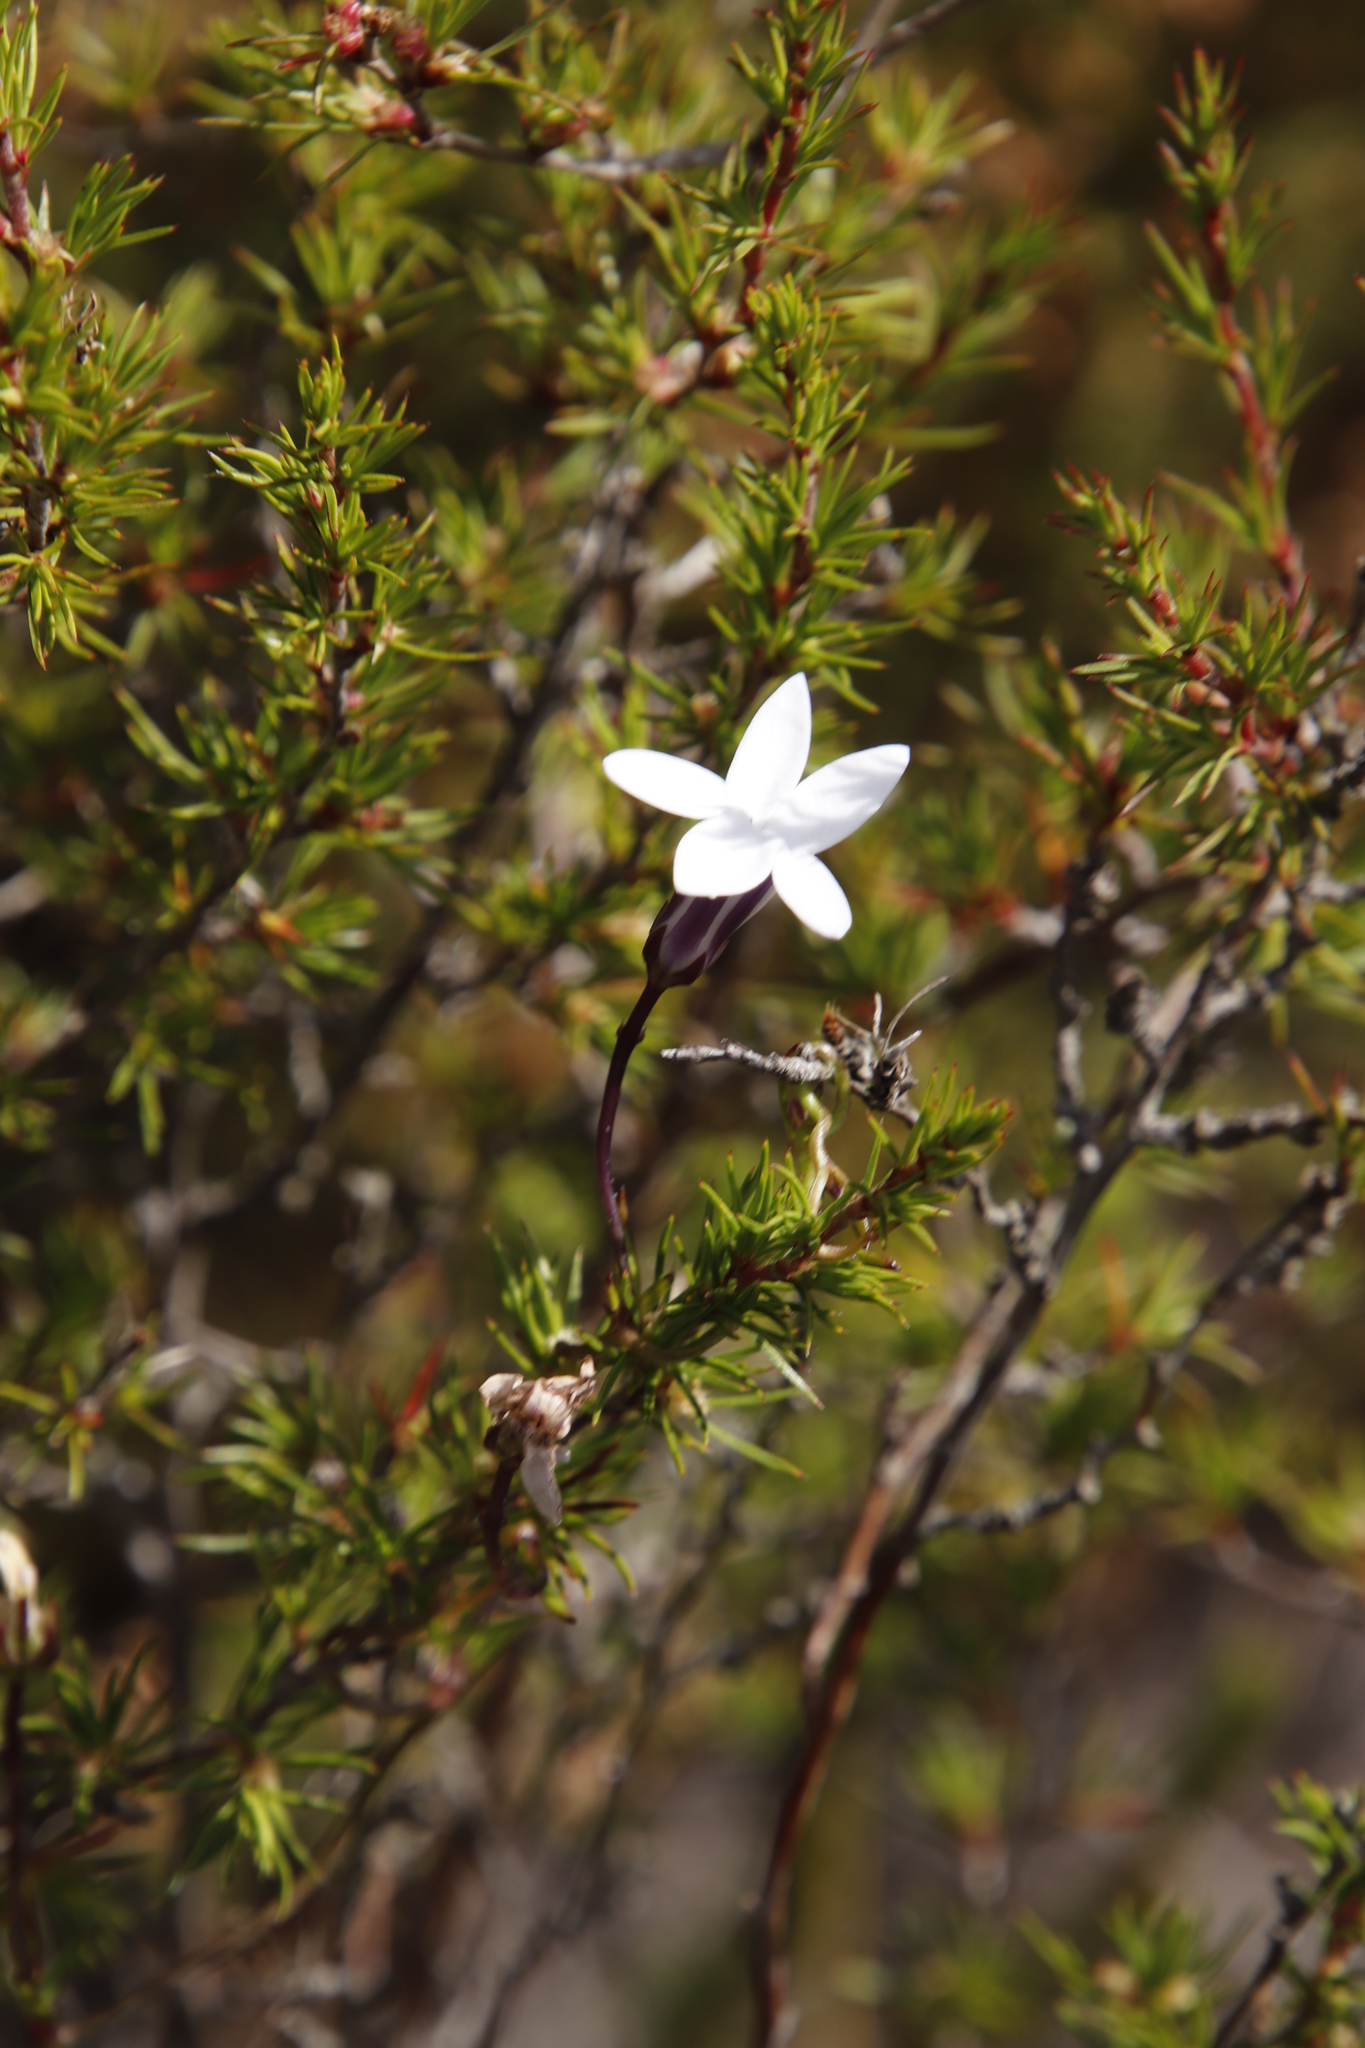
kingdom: Plantae
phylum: Tracheophyta
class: Magnoliopsida
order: Asterales
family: Campanulaceae
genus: Cyphia
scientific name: Cyphia volubilis
